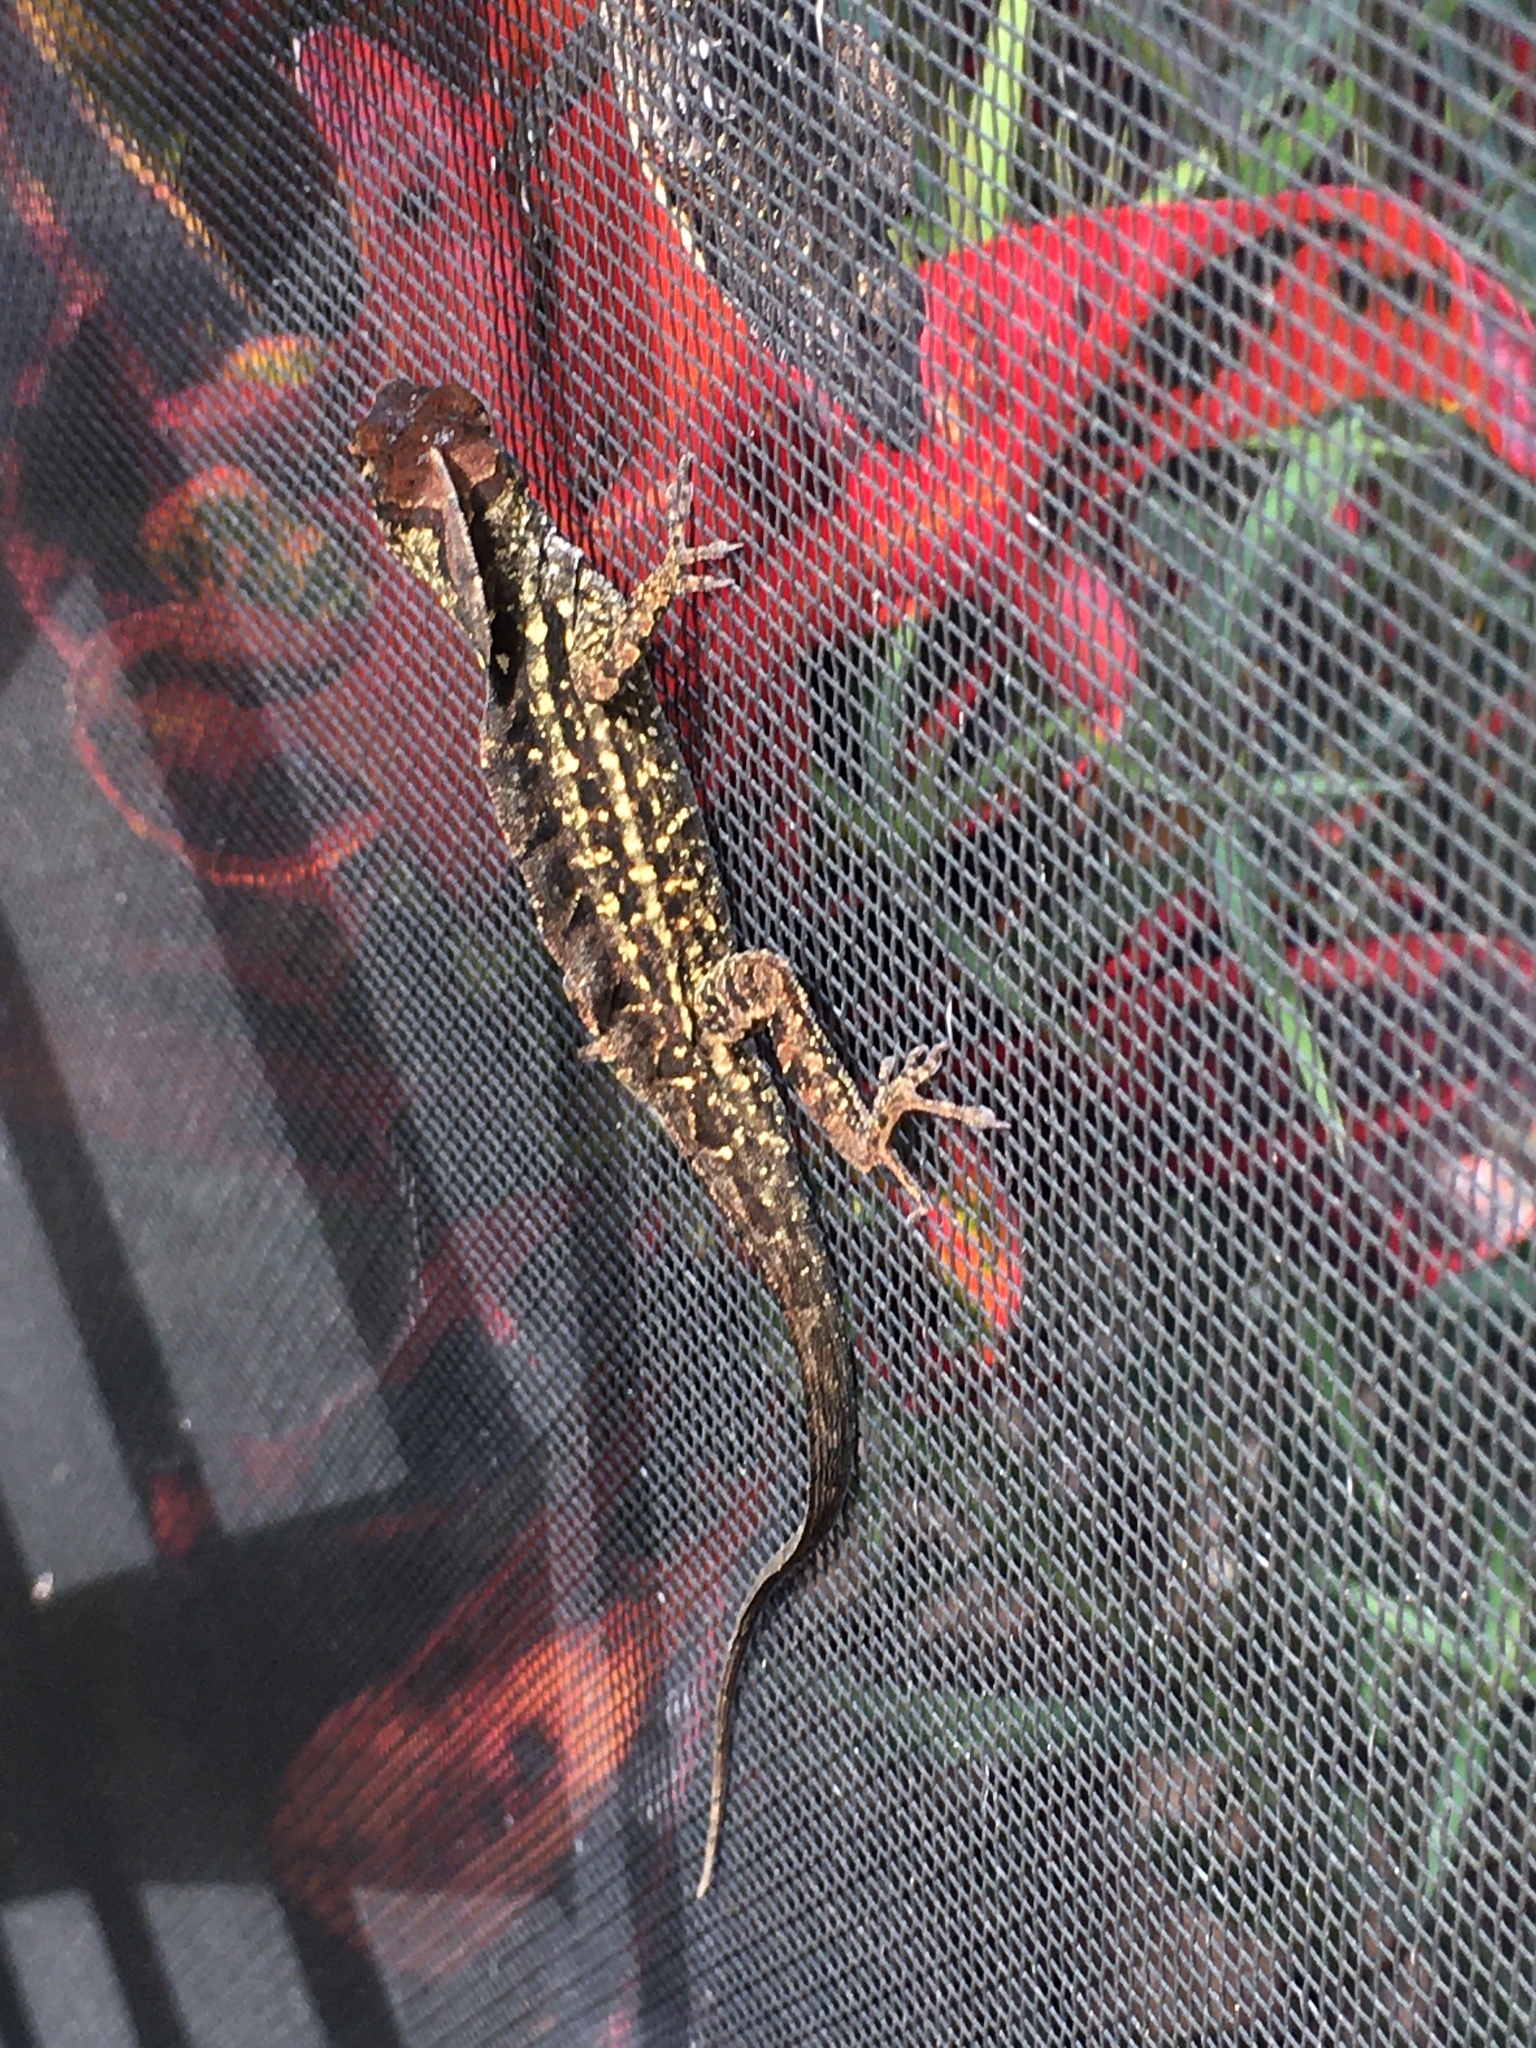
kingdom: Animalia
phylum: Chordata
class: Squamata
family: Dactyloidae
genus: Anolis
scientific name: Anolis sagrei
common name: Brown anole
